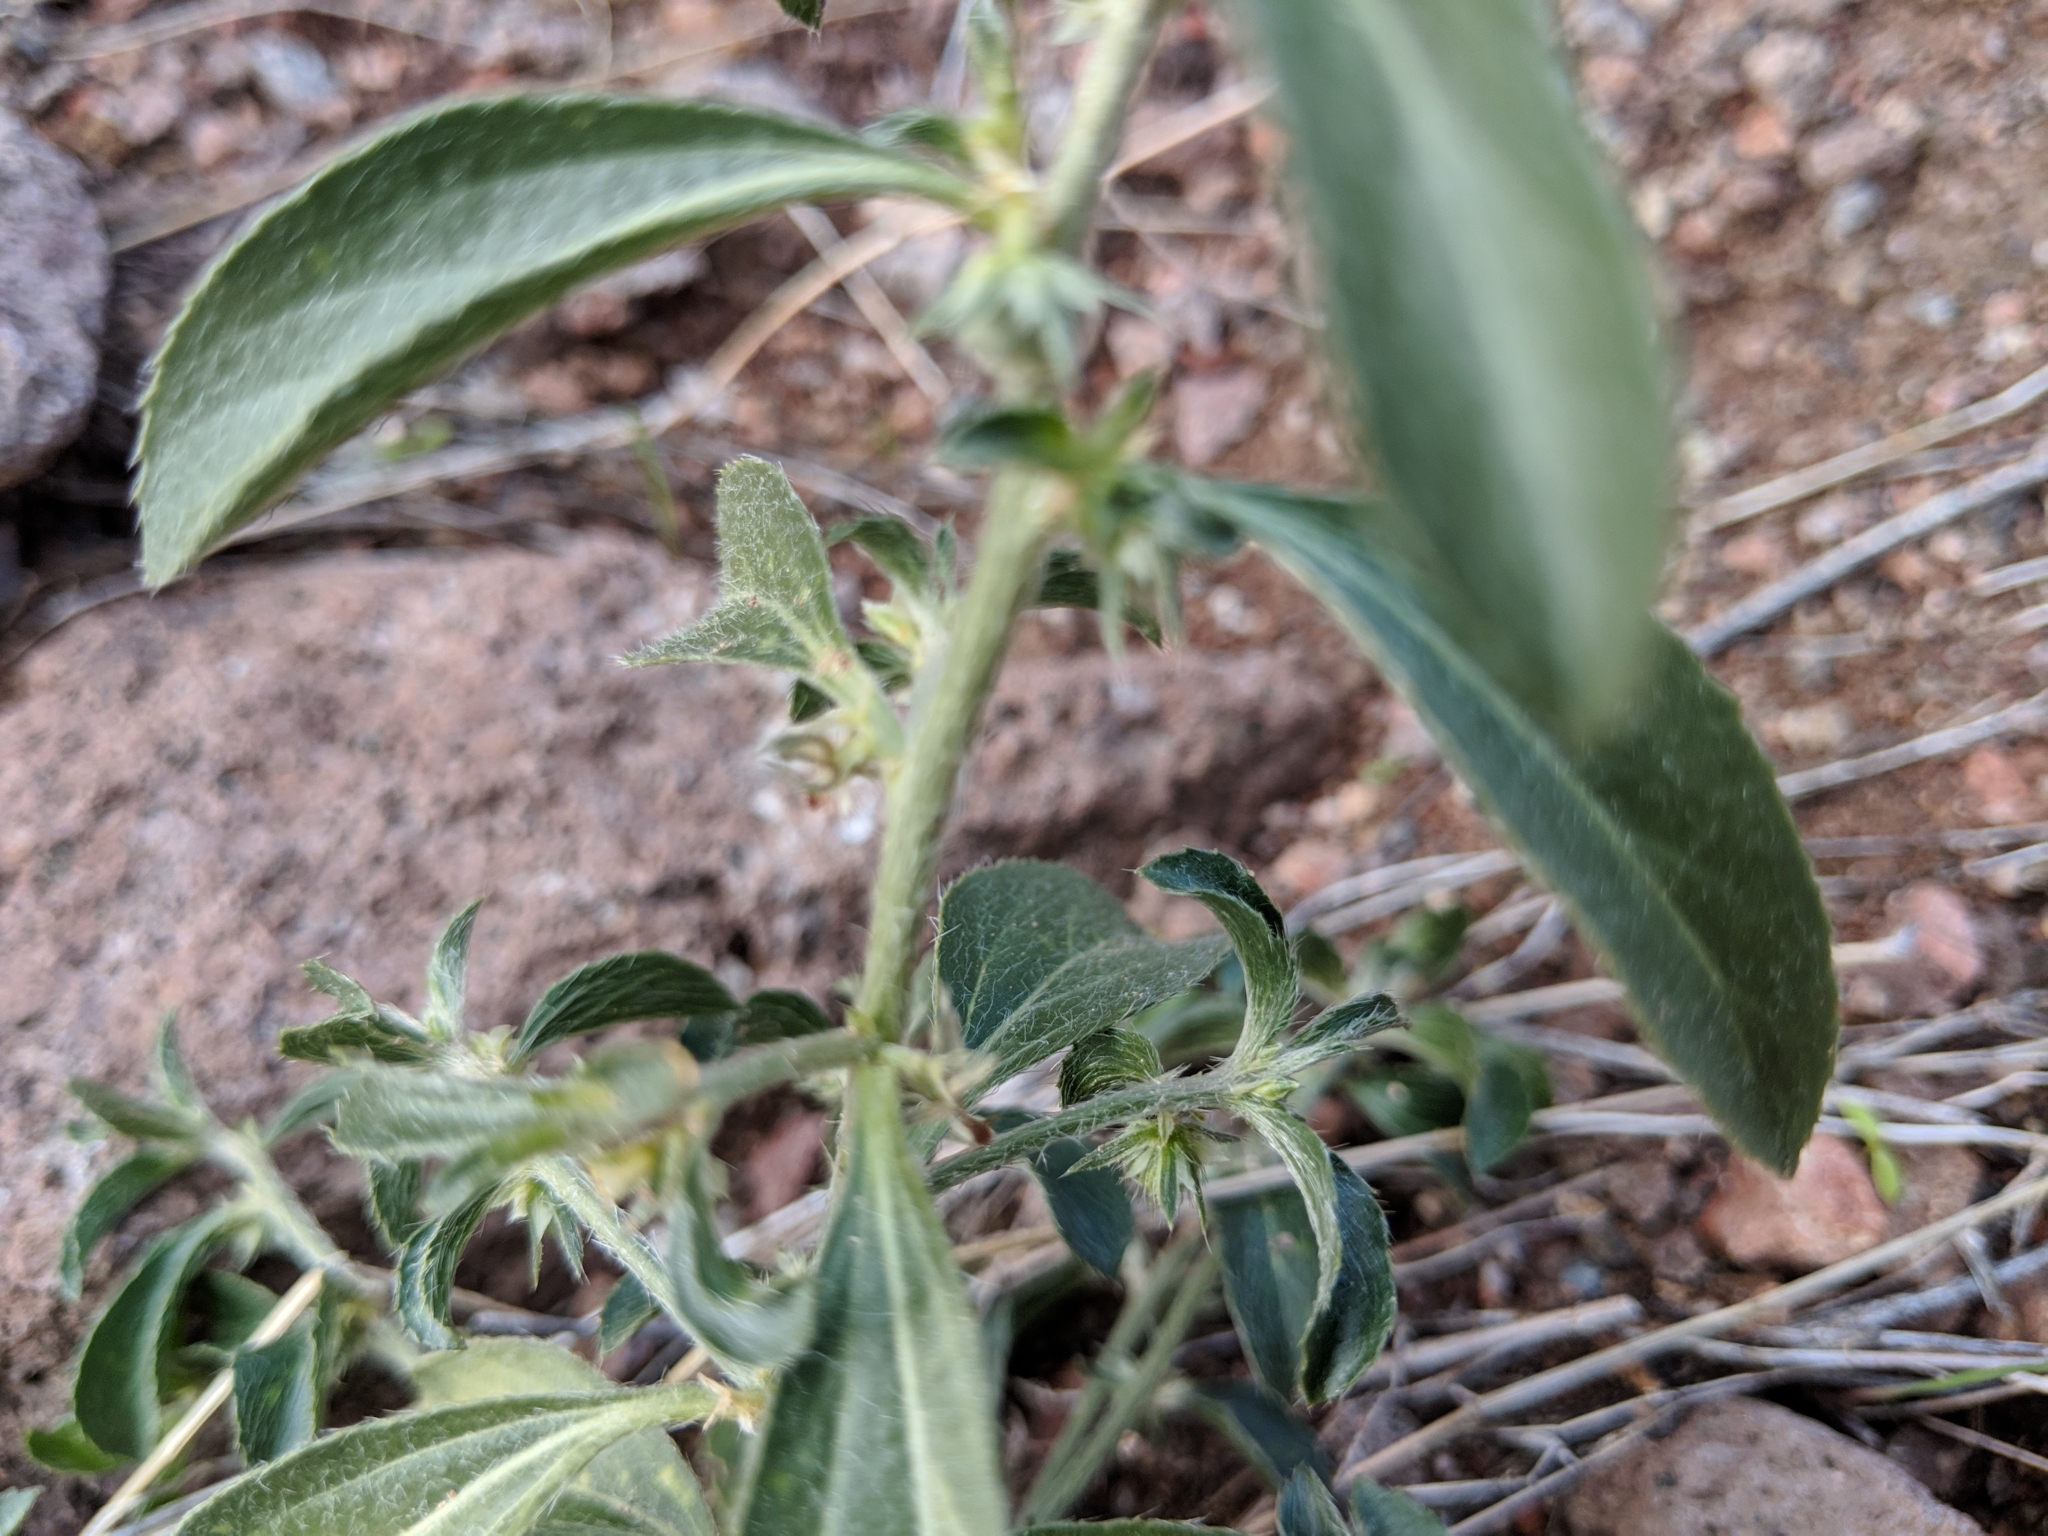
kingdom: Plantae
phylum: Tracheophyta
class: Magnoliopsida
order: Malpighiales
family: Euphorbiaceae
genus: Ditaxis
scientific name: Ditaxis serrata
